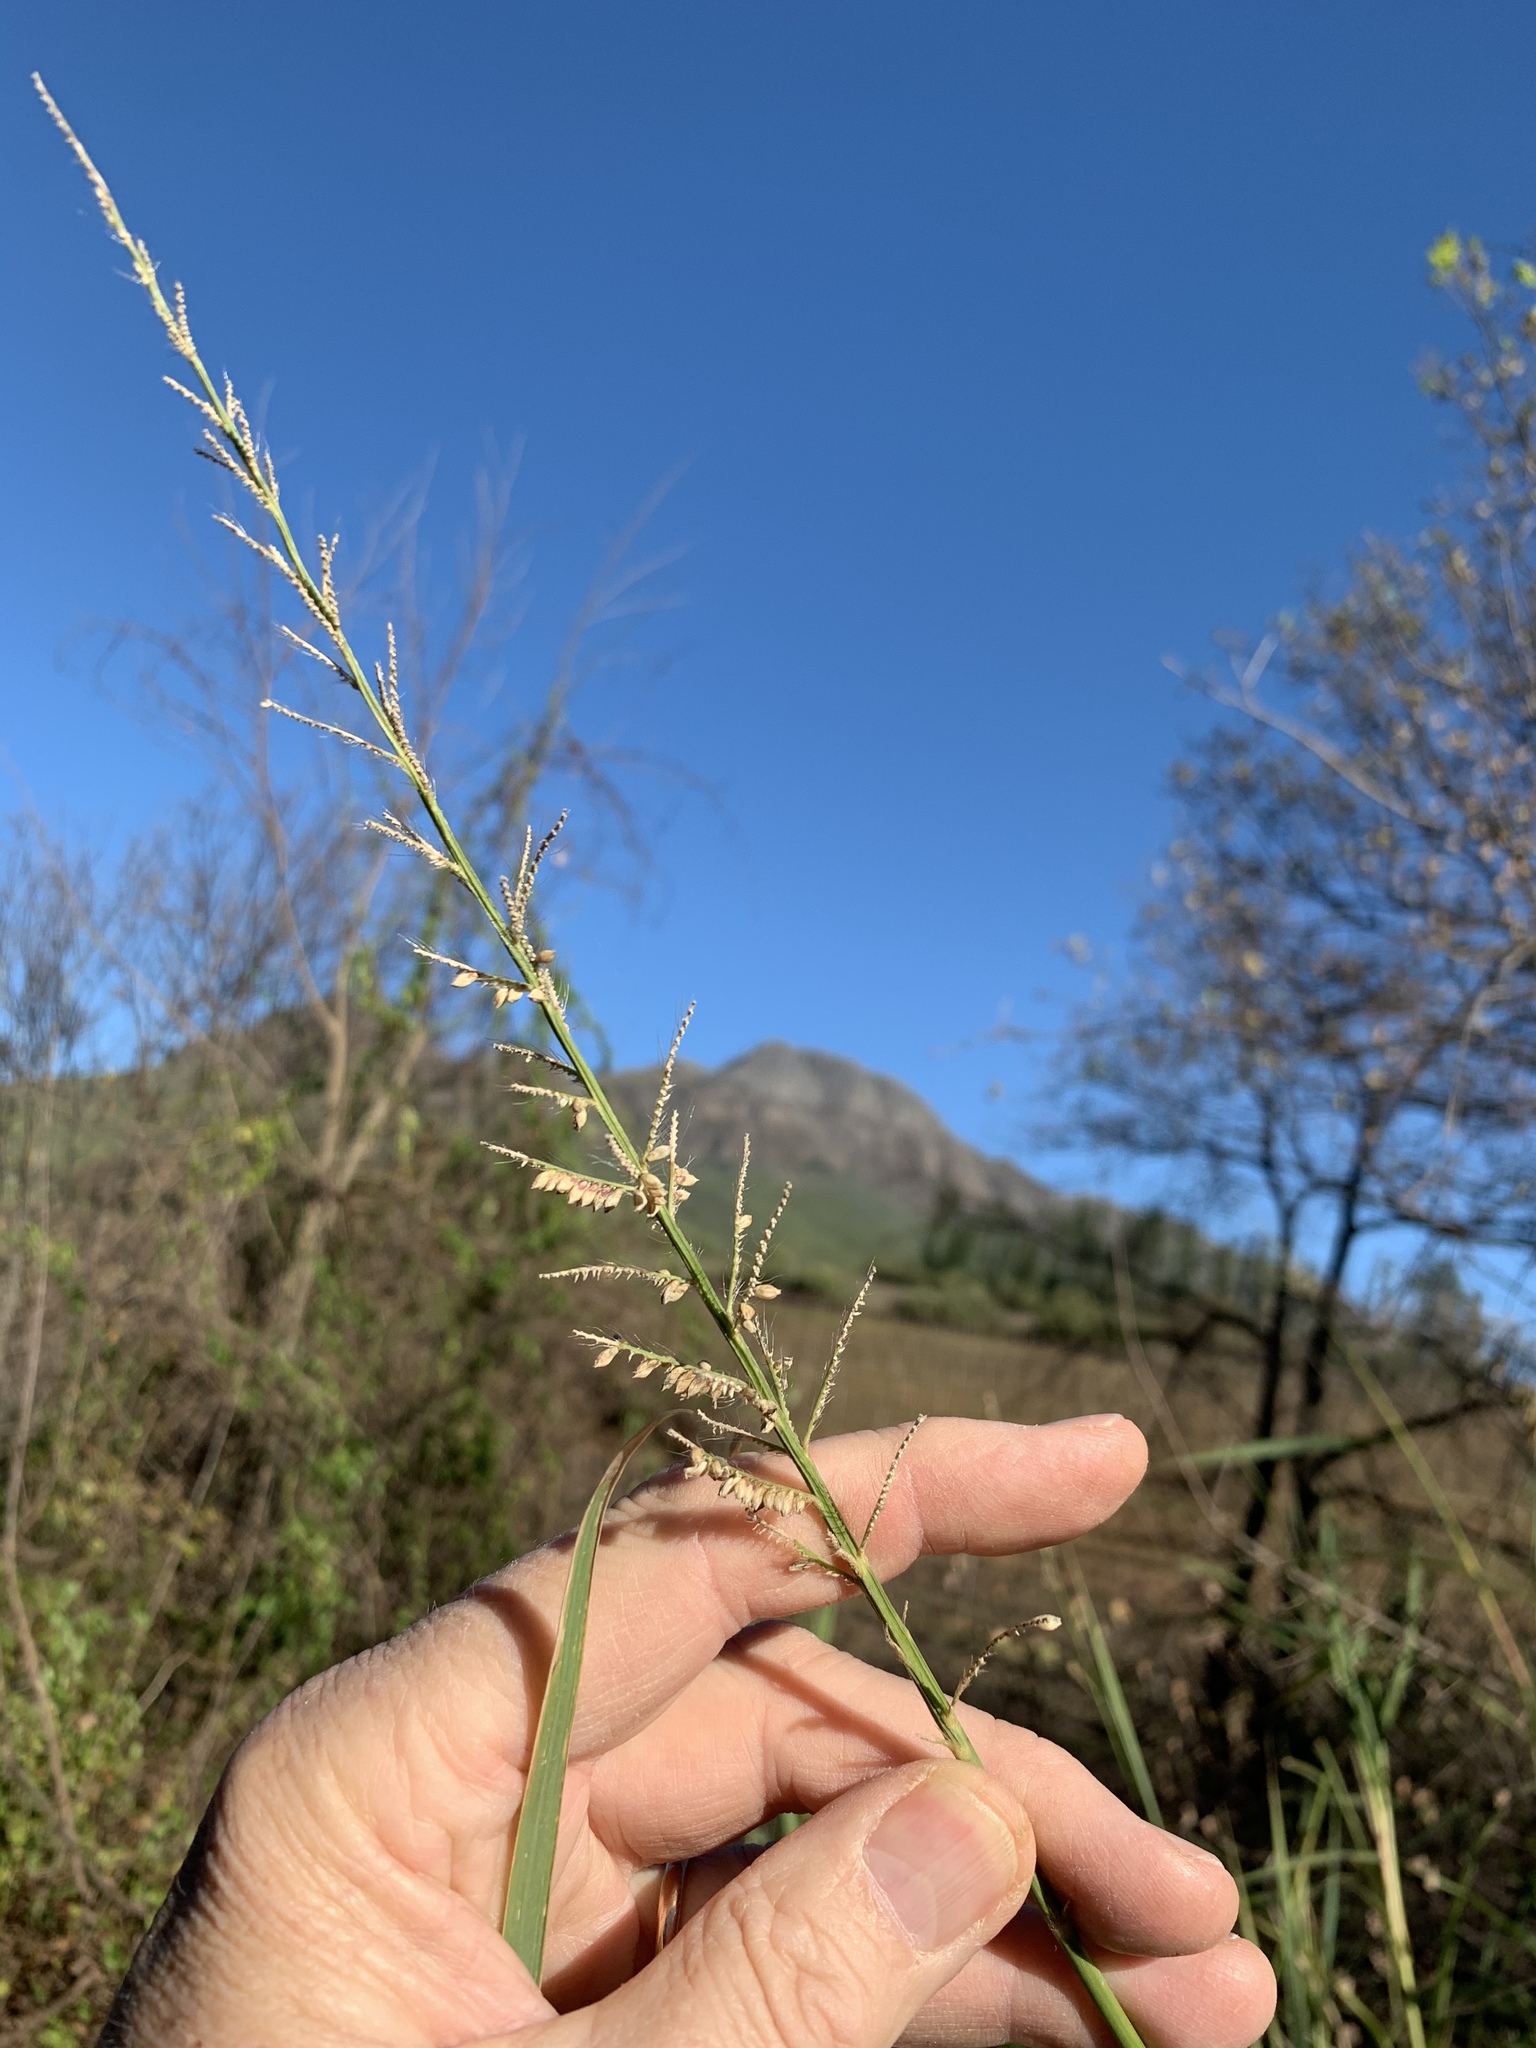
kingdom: Plantae
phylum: Tracheophyta
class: Liliopsida
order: Poales
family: Poaceae
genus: Echinochloa
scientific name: Echinochloa pyramidalis
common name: Antelope grass
